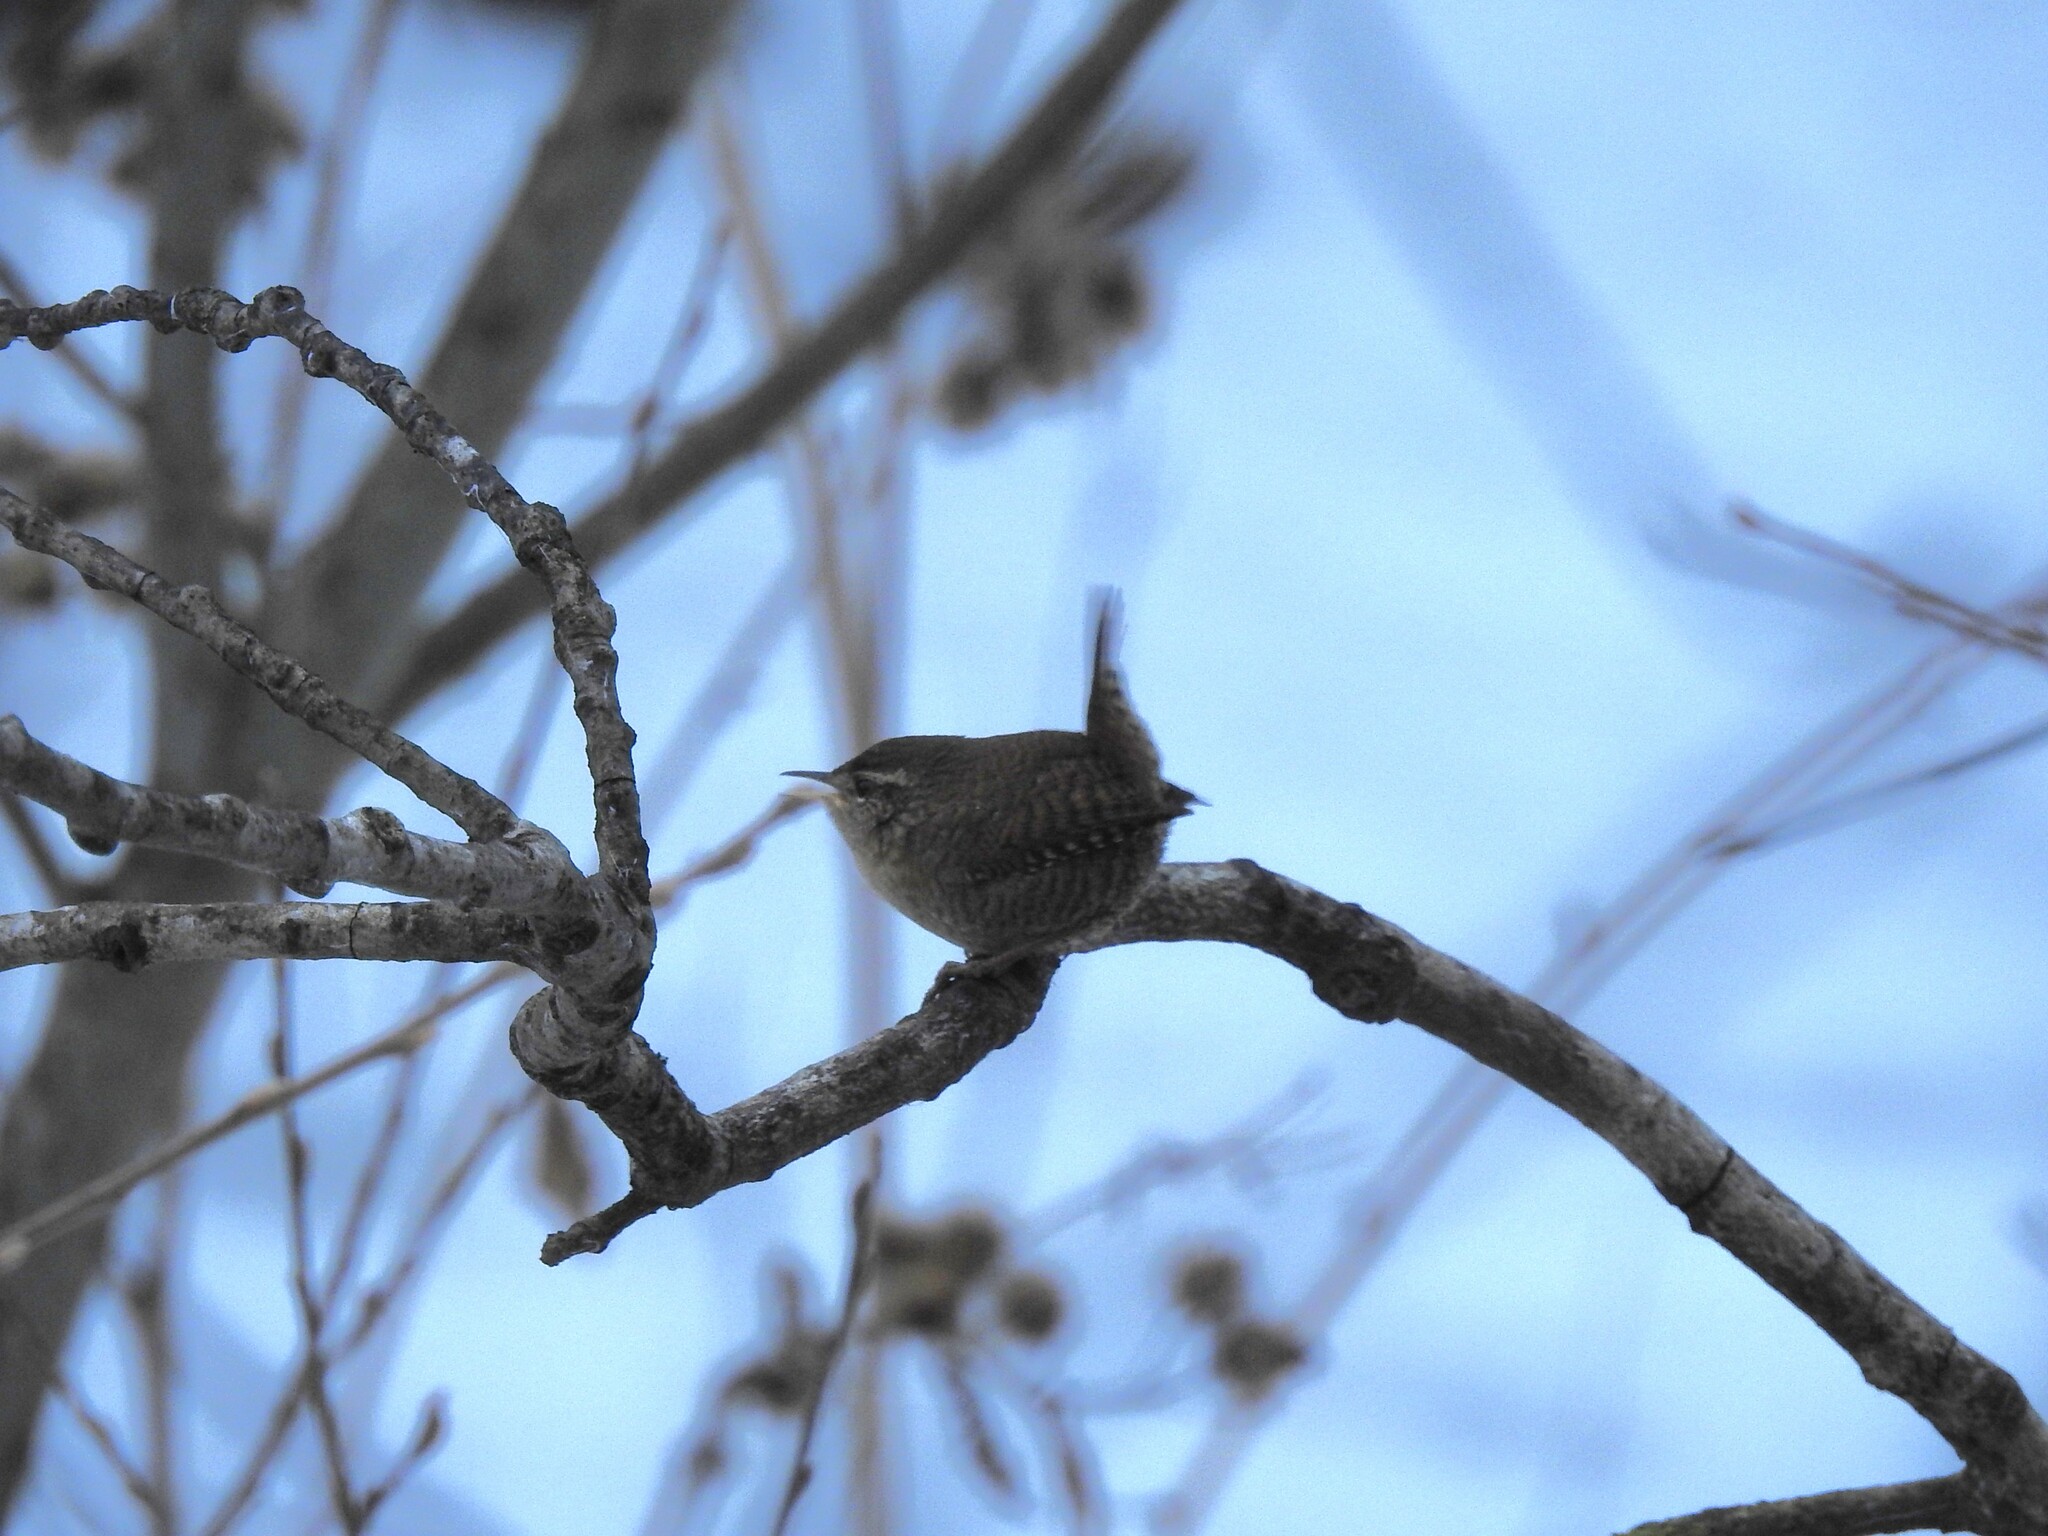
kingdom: Animalia
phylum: Chordata
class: Aves
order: Passeriformes
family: Troglodytidae
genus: Troglodytes
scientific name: Troglodytes troglodytes
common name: Eurasian wren
